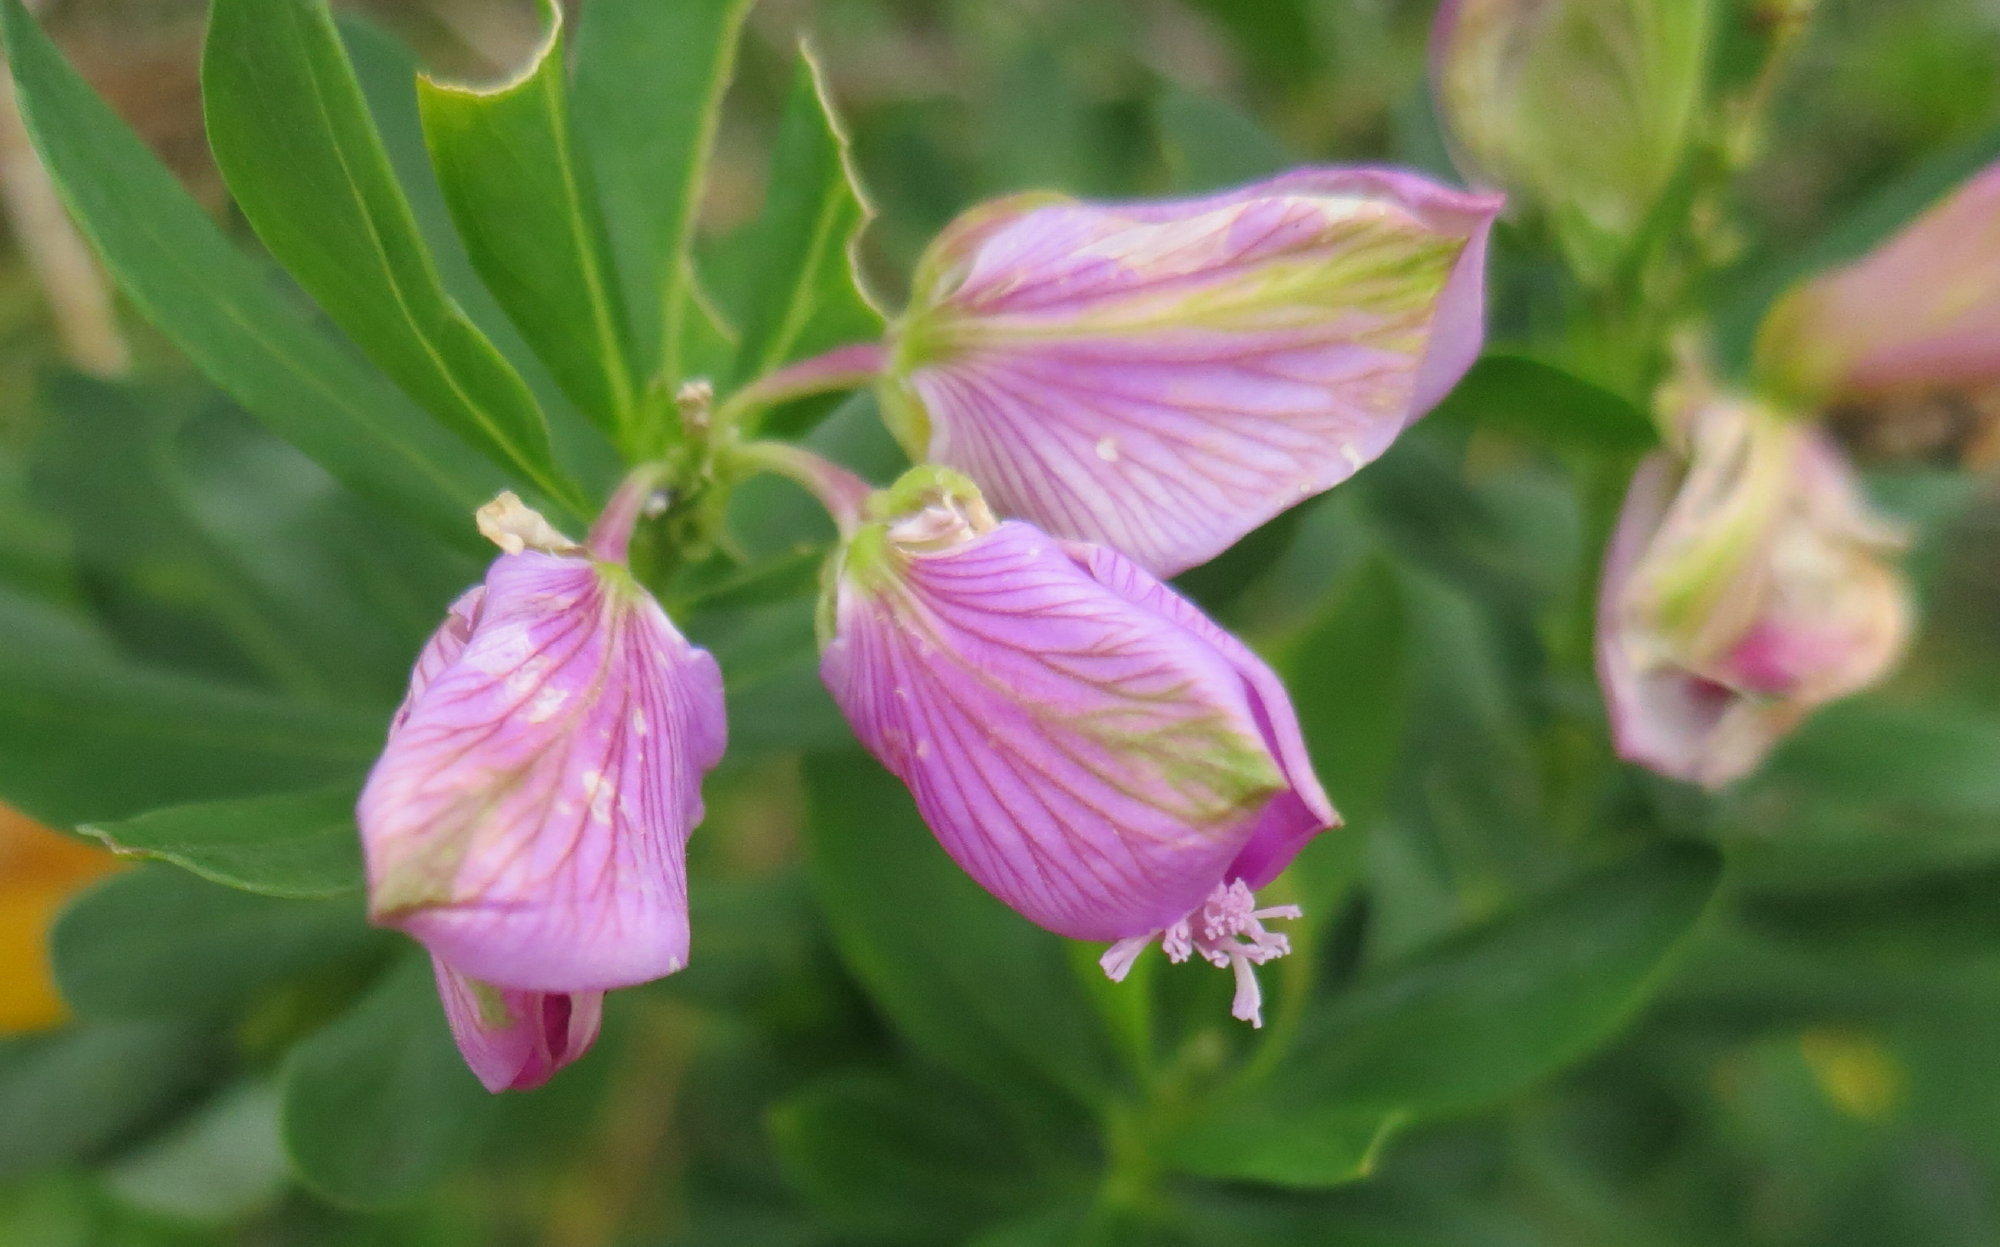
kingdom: Plantae
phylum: Tracheophyta
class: Magnoliopsida
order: Fabales
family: Polygalaceae
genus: Polygala
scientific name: Polygala myrtifolia
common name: Myrtle-leaf milkwort
